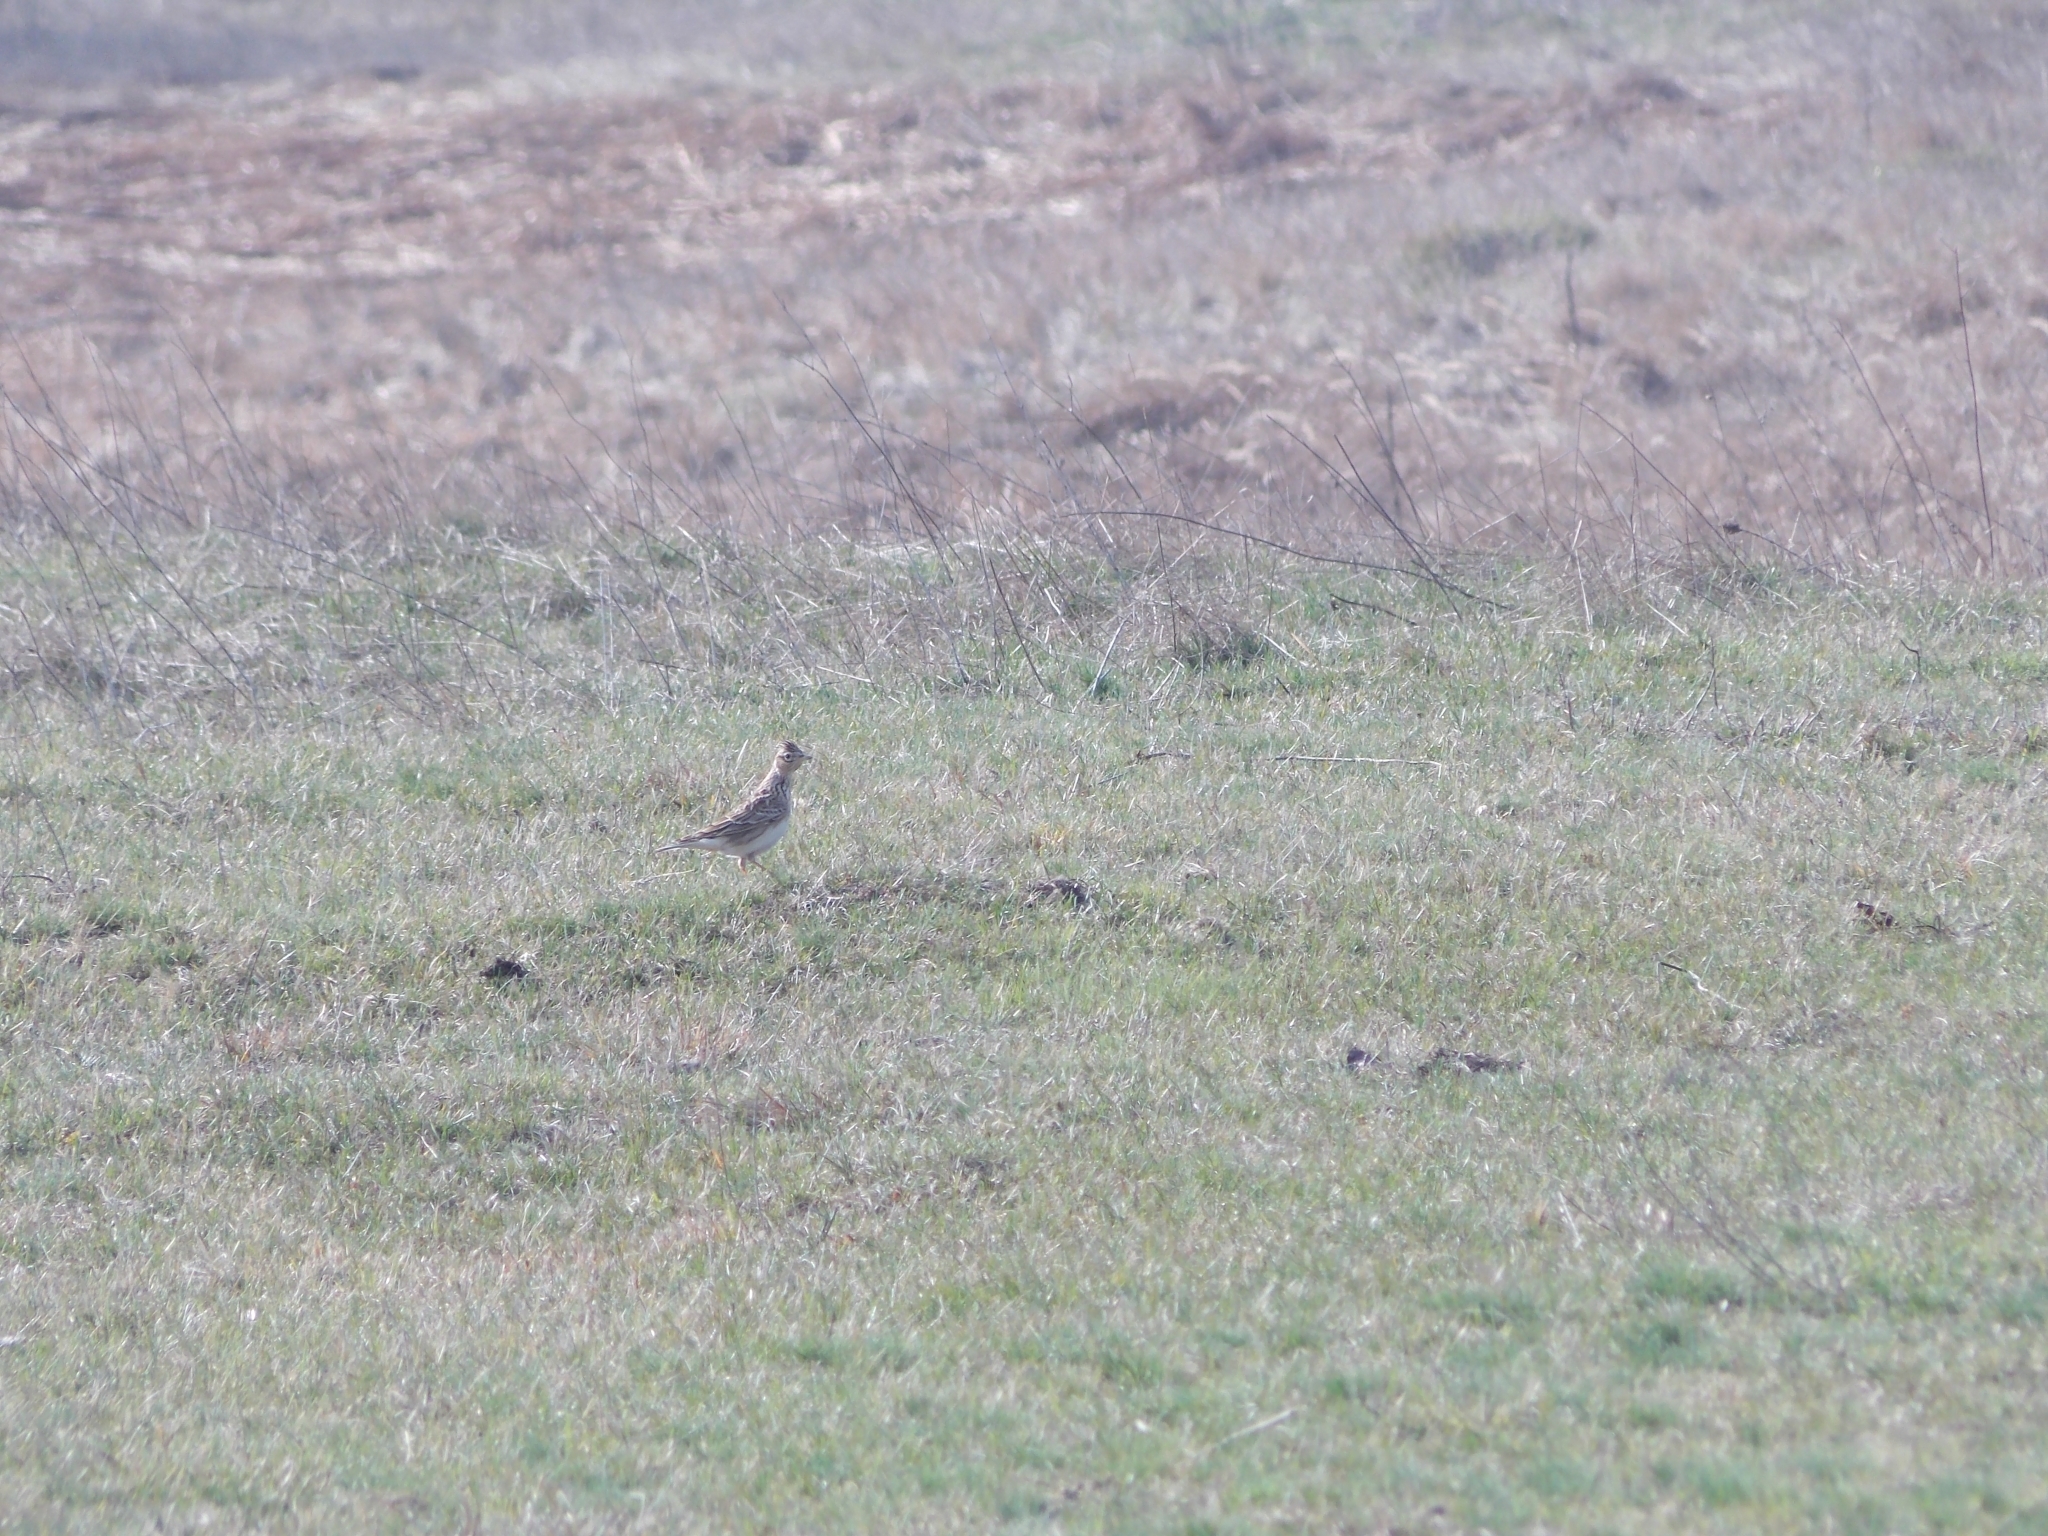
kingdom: Animalia
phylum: Chordata
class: Aves
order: Passeriformes
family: Alaudidae
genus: Alauda
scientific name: Alauda arvensis
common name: Eurasian skylark
